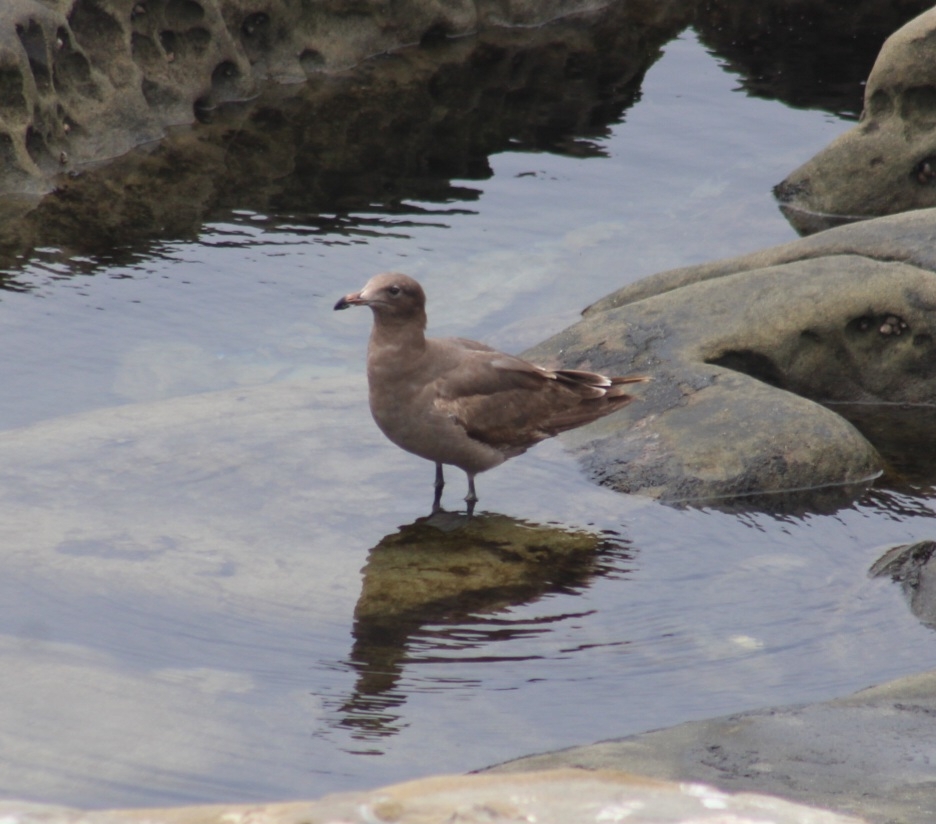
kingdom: Animalia
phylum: Chordata
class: Aves
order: Charadriiformes
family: Laridae
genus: Larus
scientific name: Larus heermanni
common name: Heermann's gull
